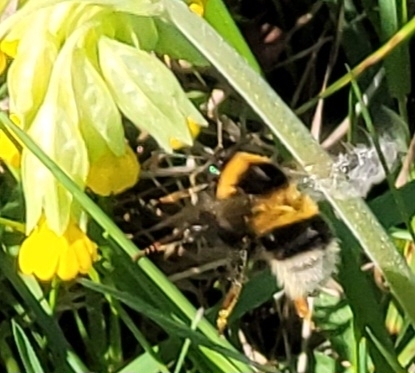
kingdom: Animalia
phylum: Arthropoda
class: Insecta
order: Hymenoptera
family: Apidae
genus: Bombus
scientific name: Bombus hortorum
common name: Garden bumblebee
